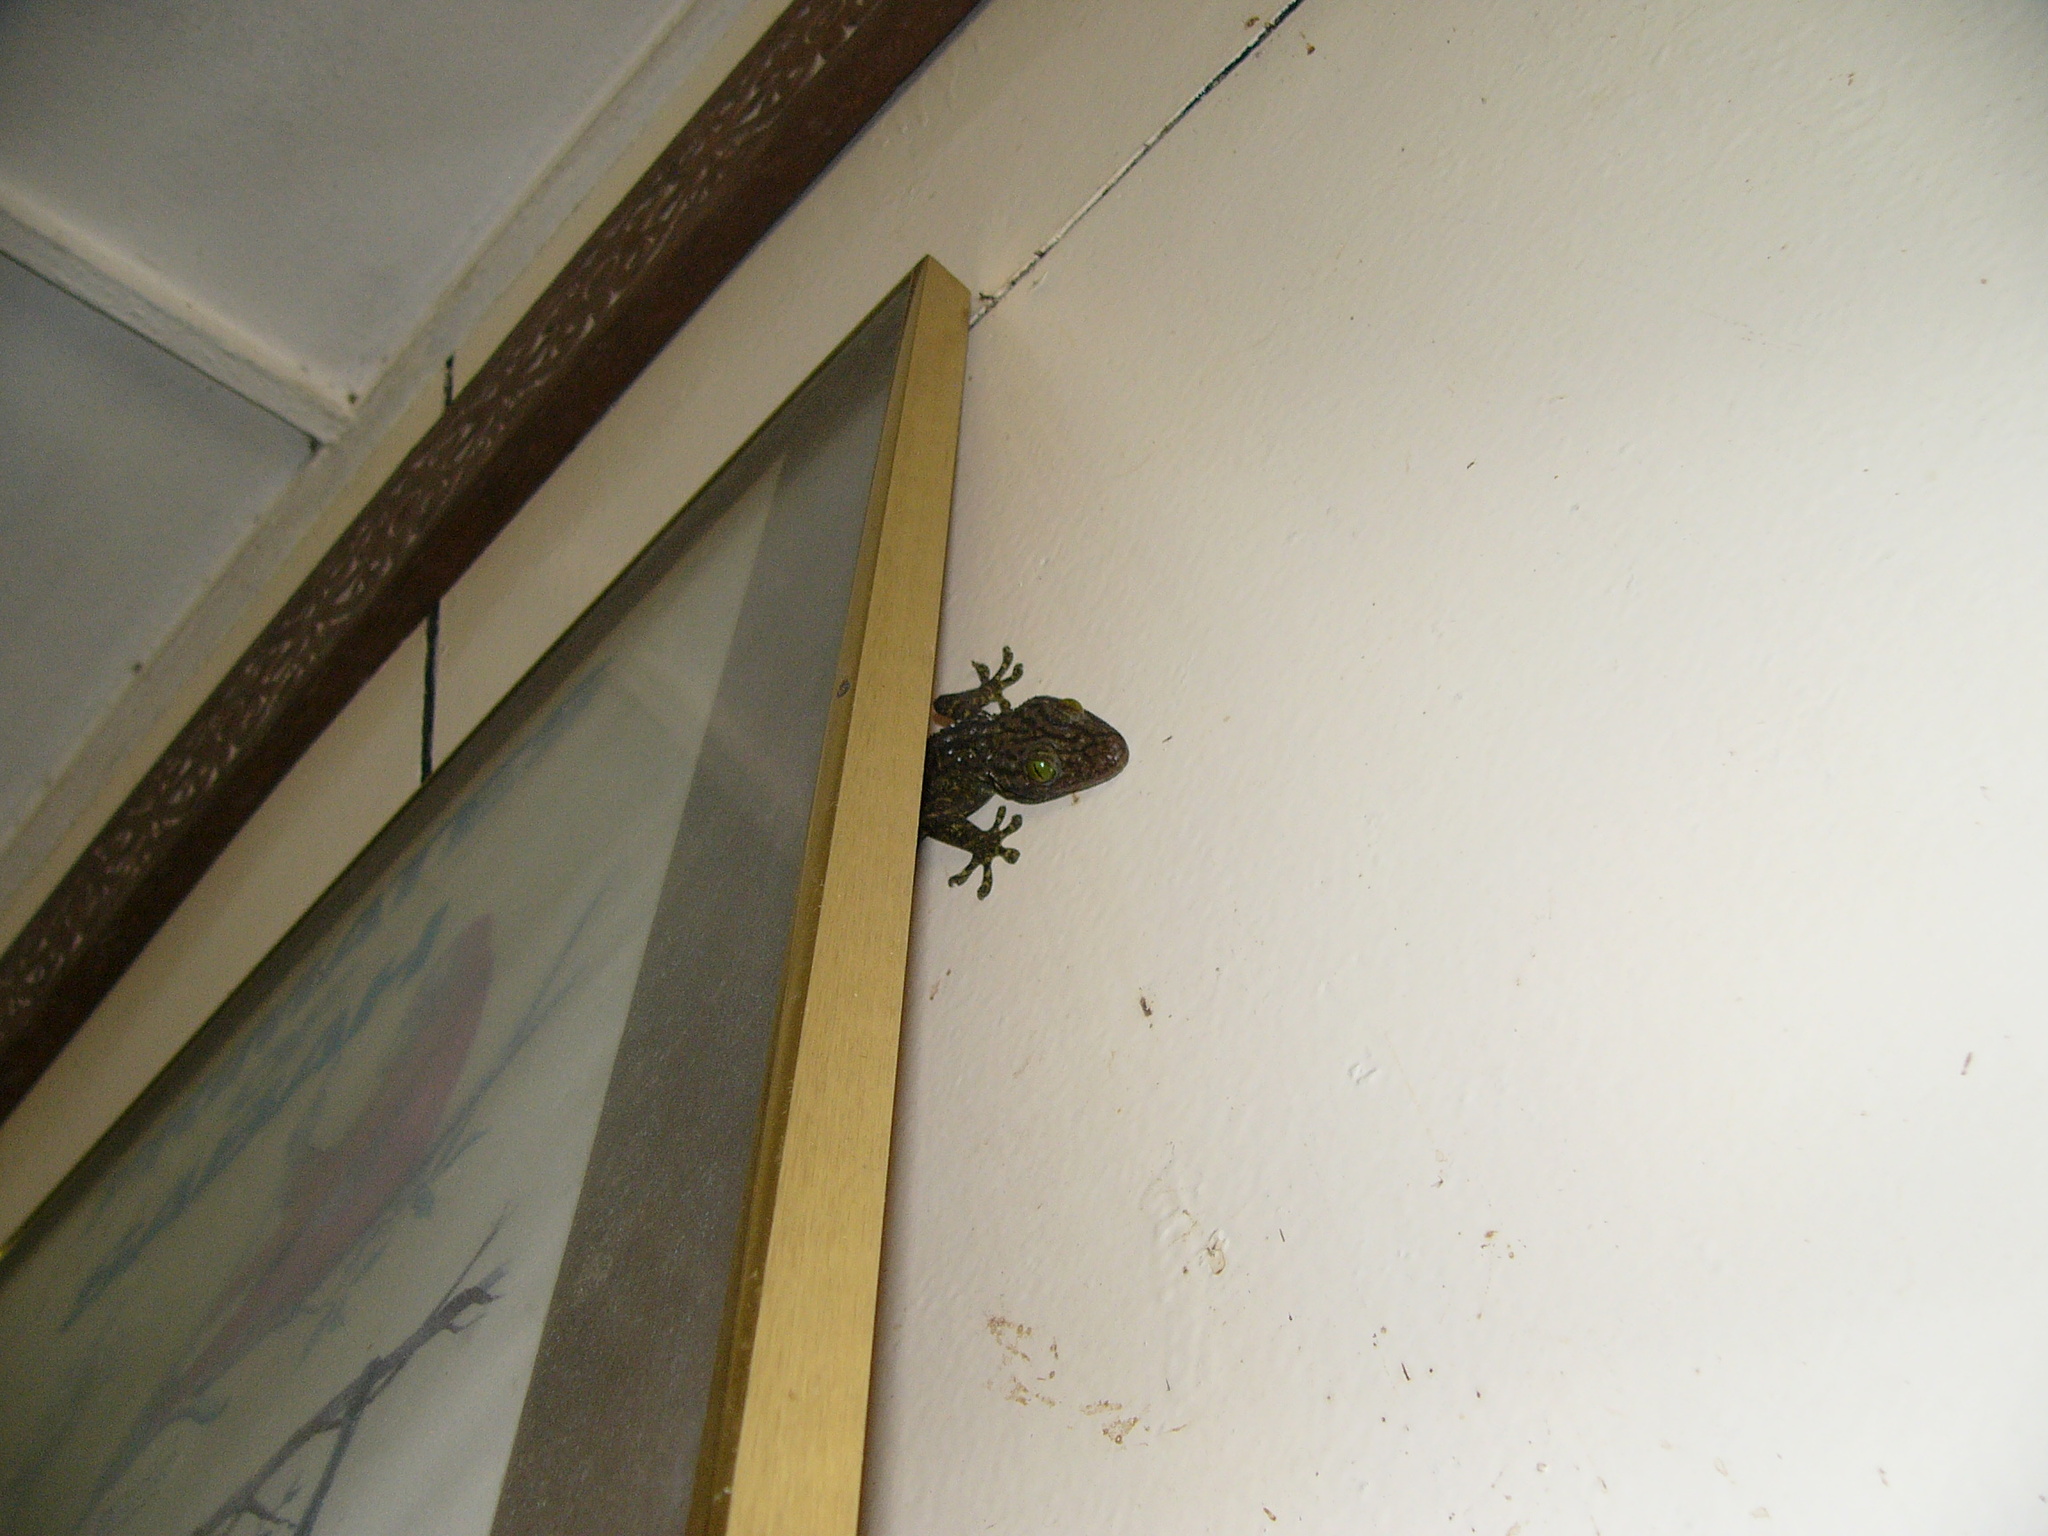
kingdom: Animalia
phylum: Chordata
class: Squamata
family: Gekkonidae
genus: Gekko
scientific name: Gekko albofasciolatus
